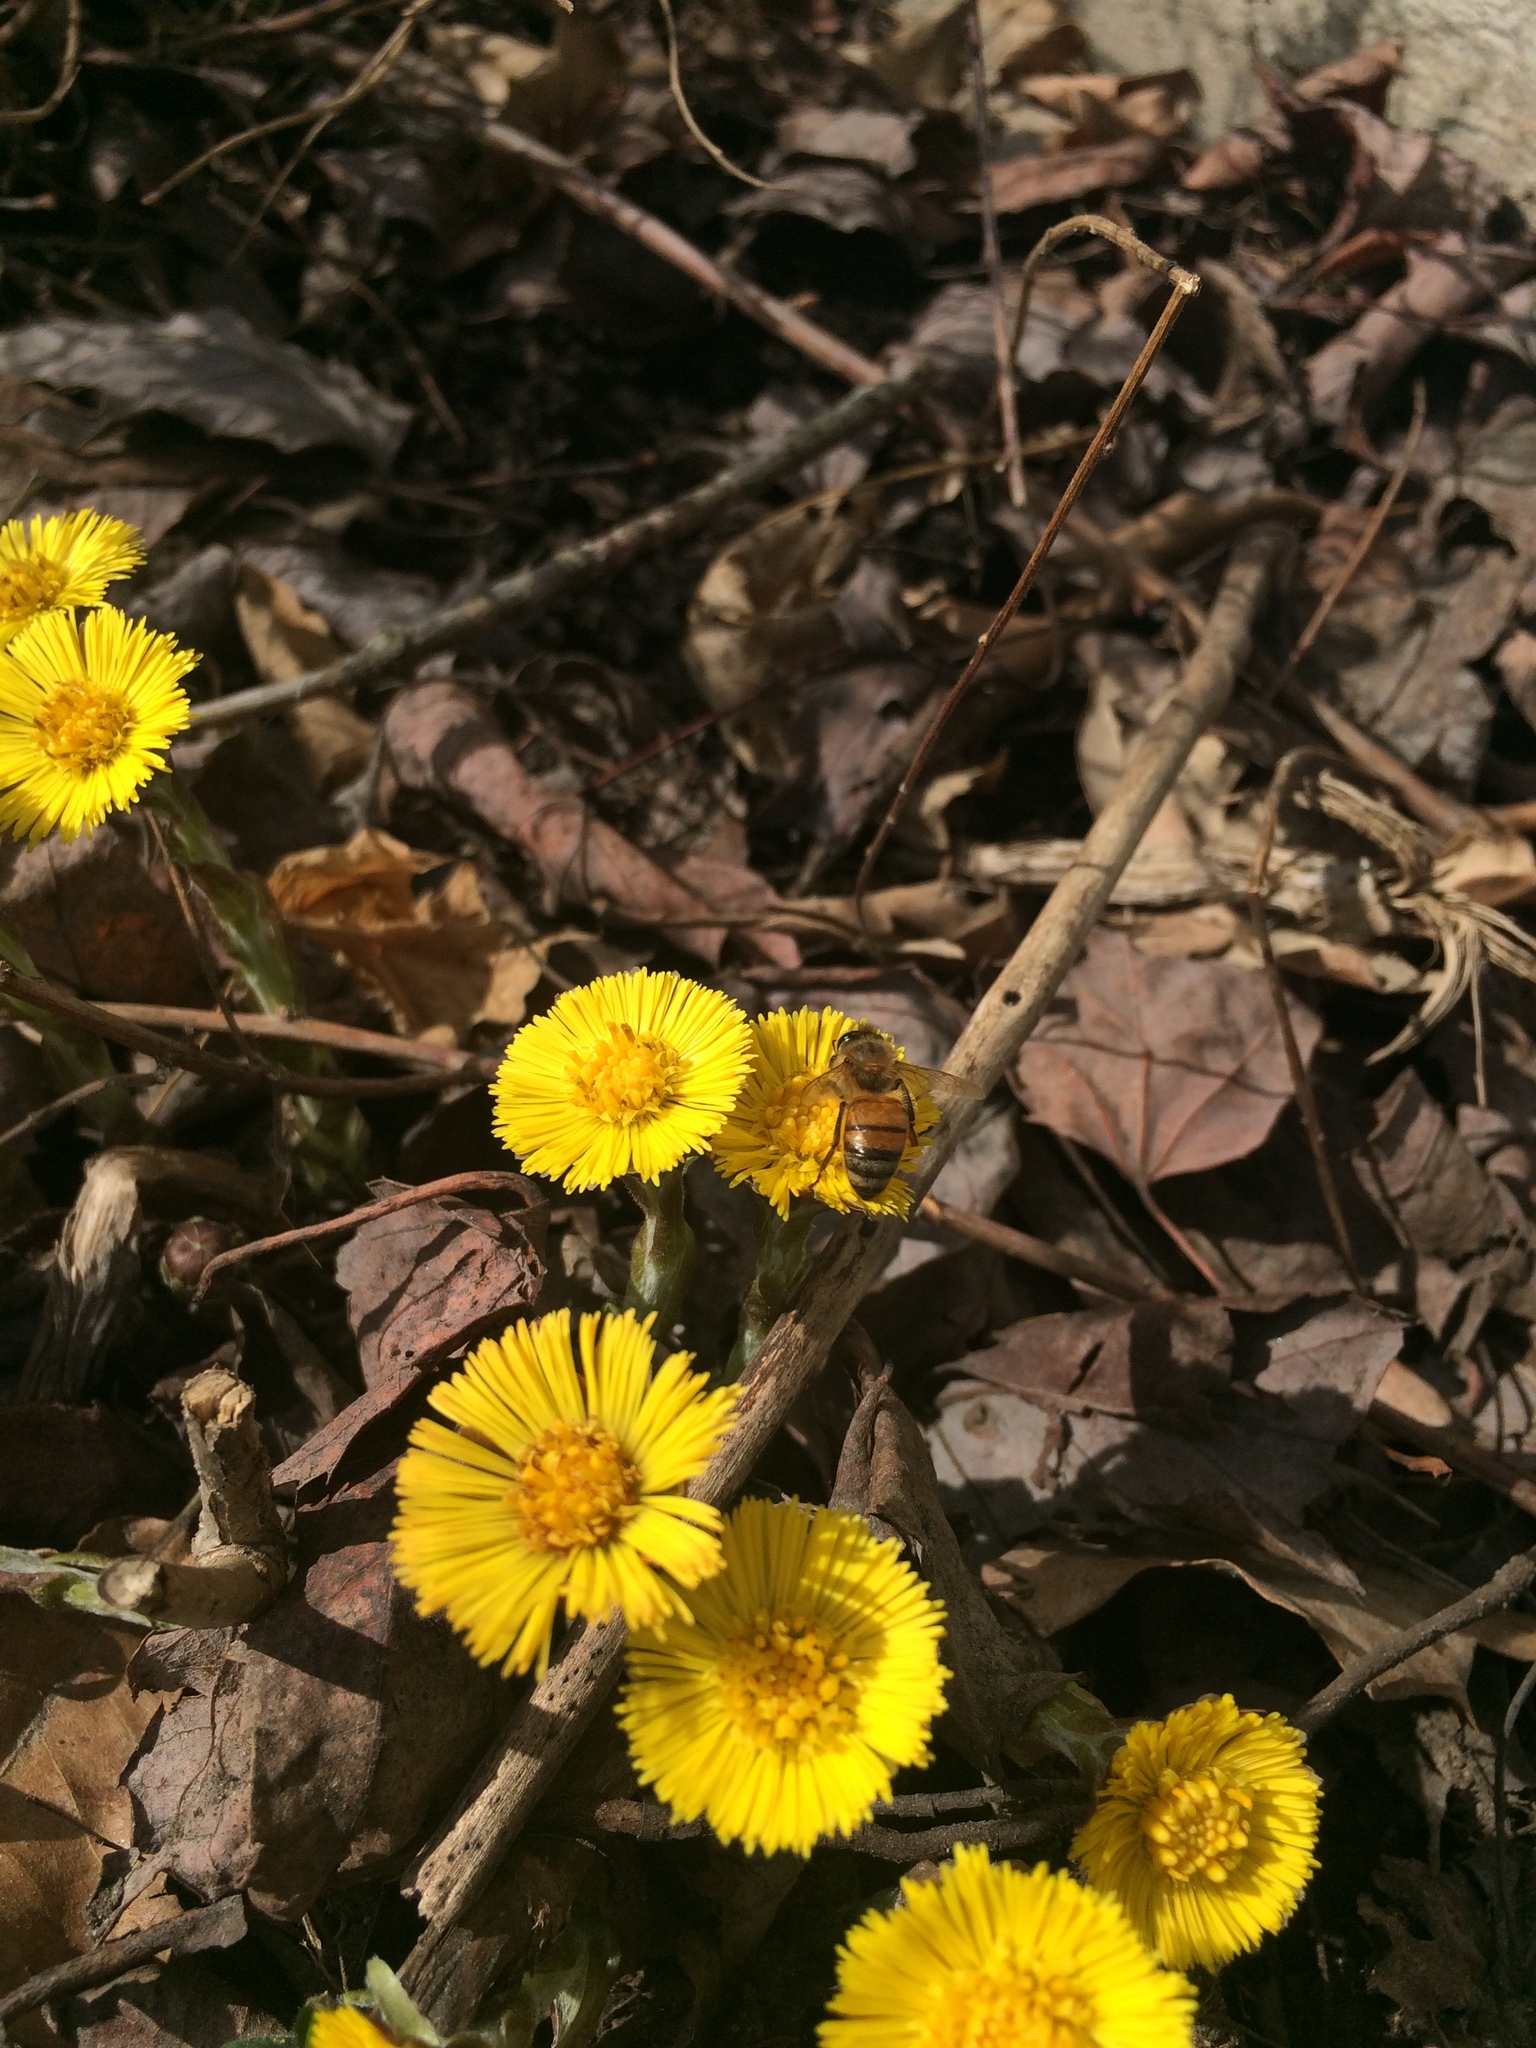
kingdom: Plantae
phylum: Tracheophyta
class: Magnoliopsida
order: Asterales
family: Asteraceae
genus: Tussilago
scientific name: Tussilago farfara
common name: Coltsfoot
